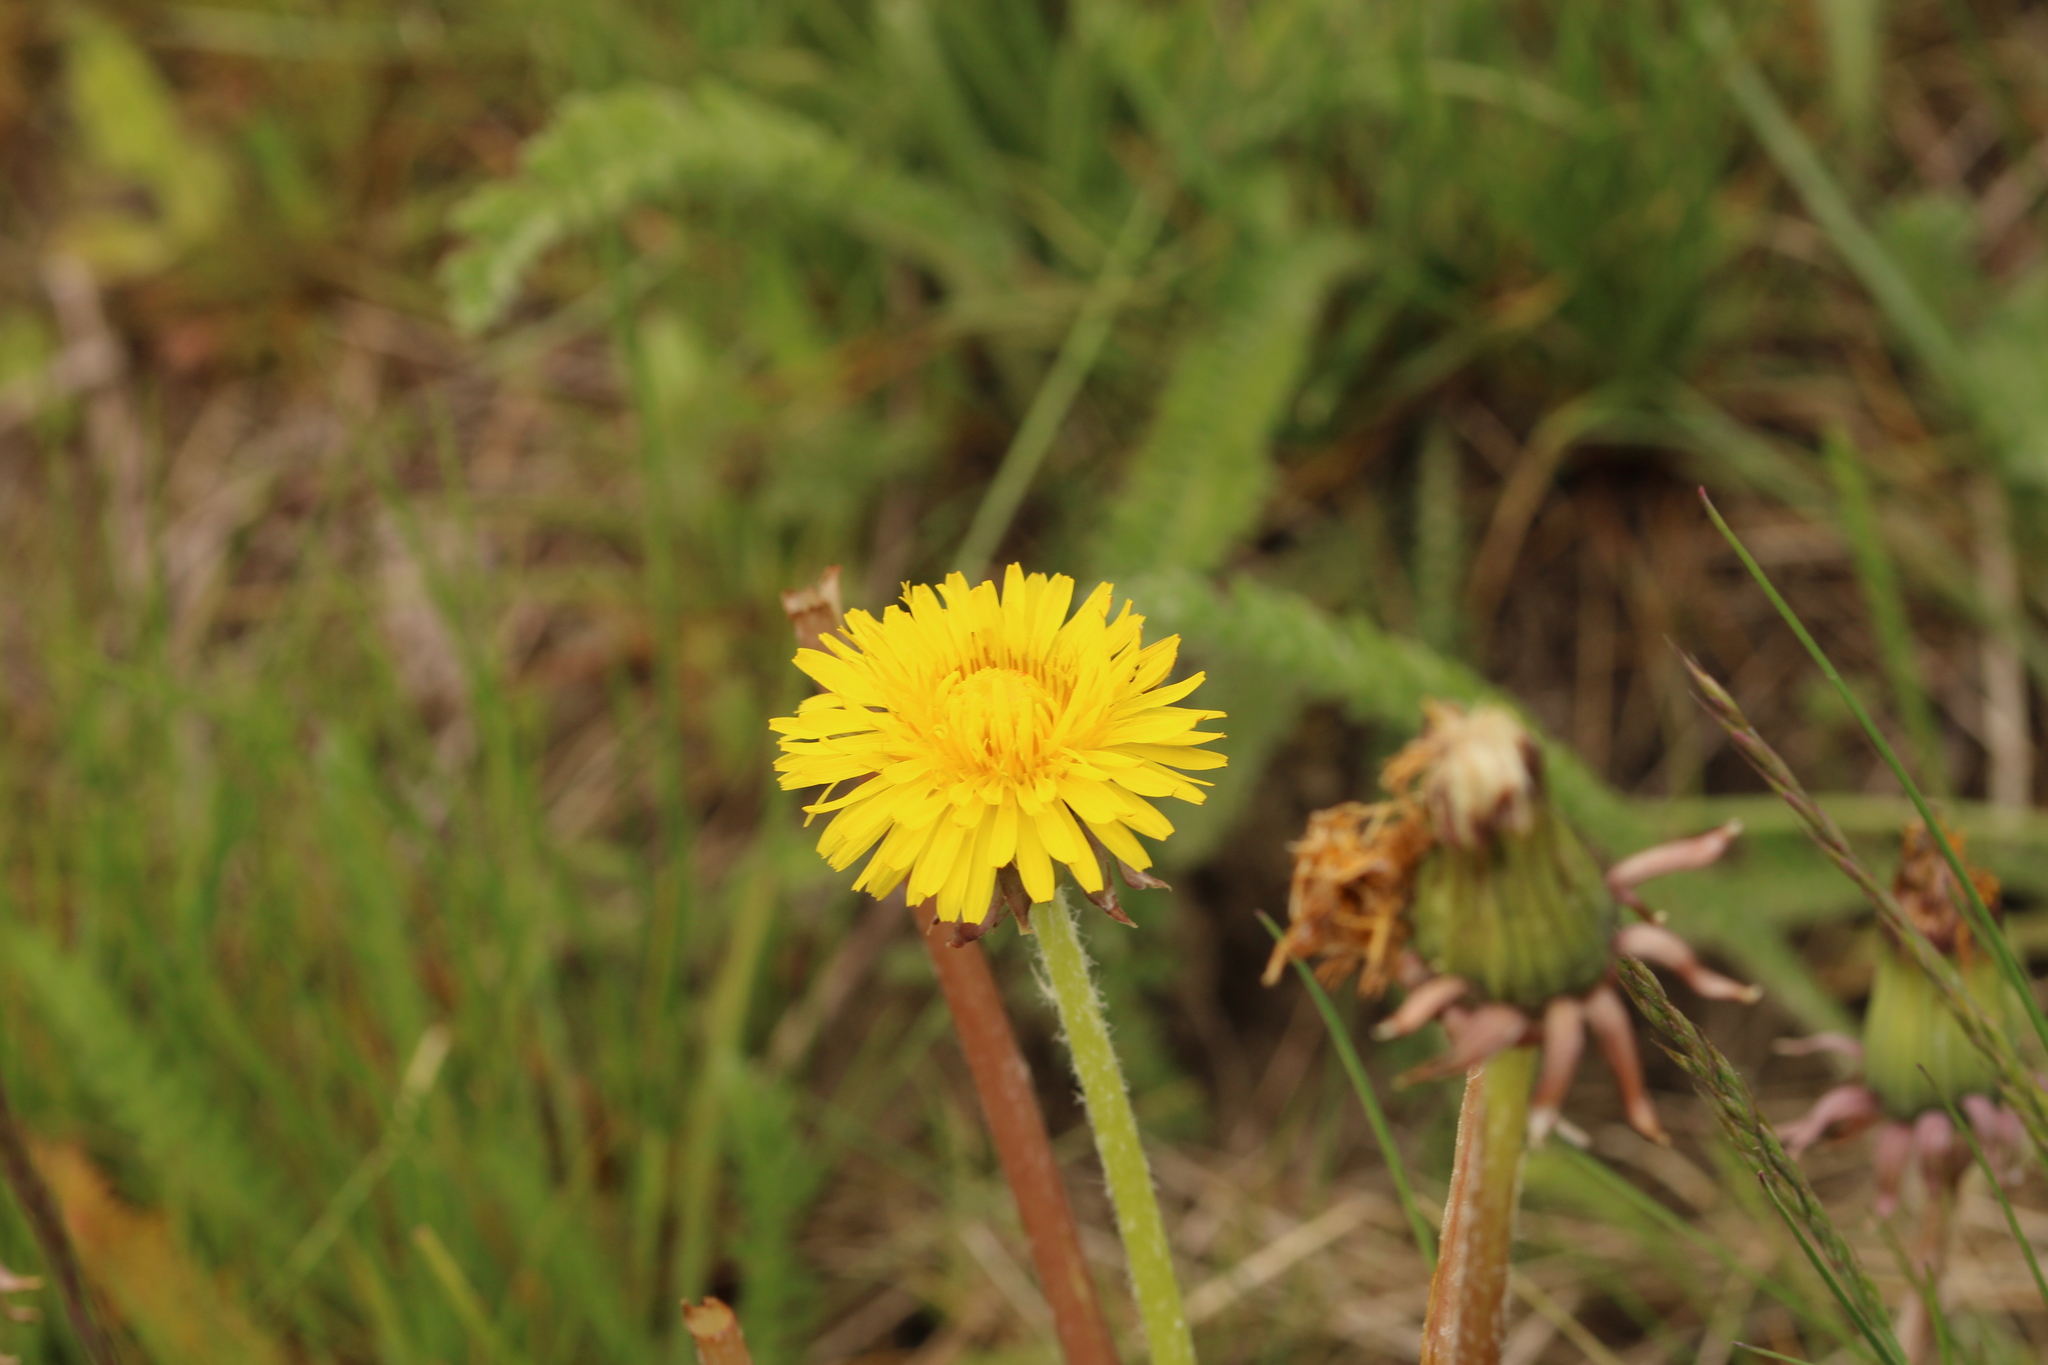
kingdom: Plantae
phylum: Tracheophyta
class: Magnoliopsida
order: Asterales
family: Asteraceae
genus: Taraxacum
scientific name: Taraxacum
